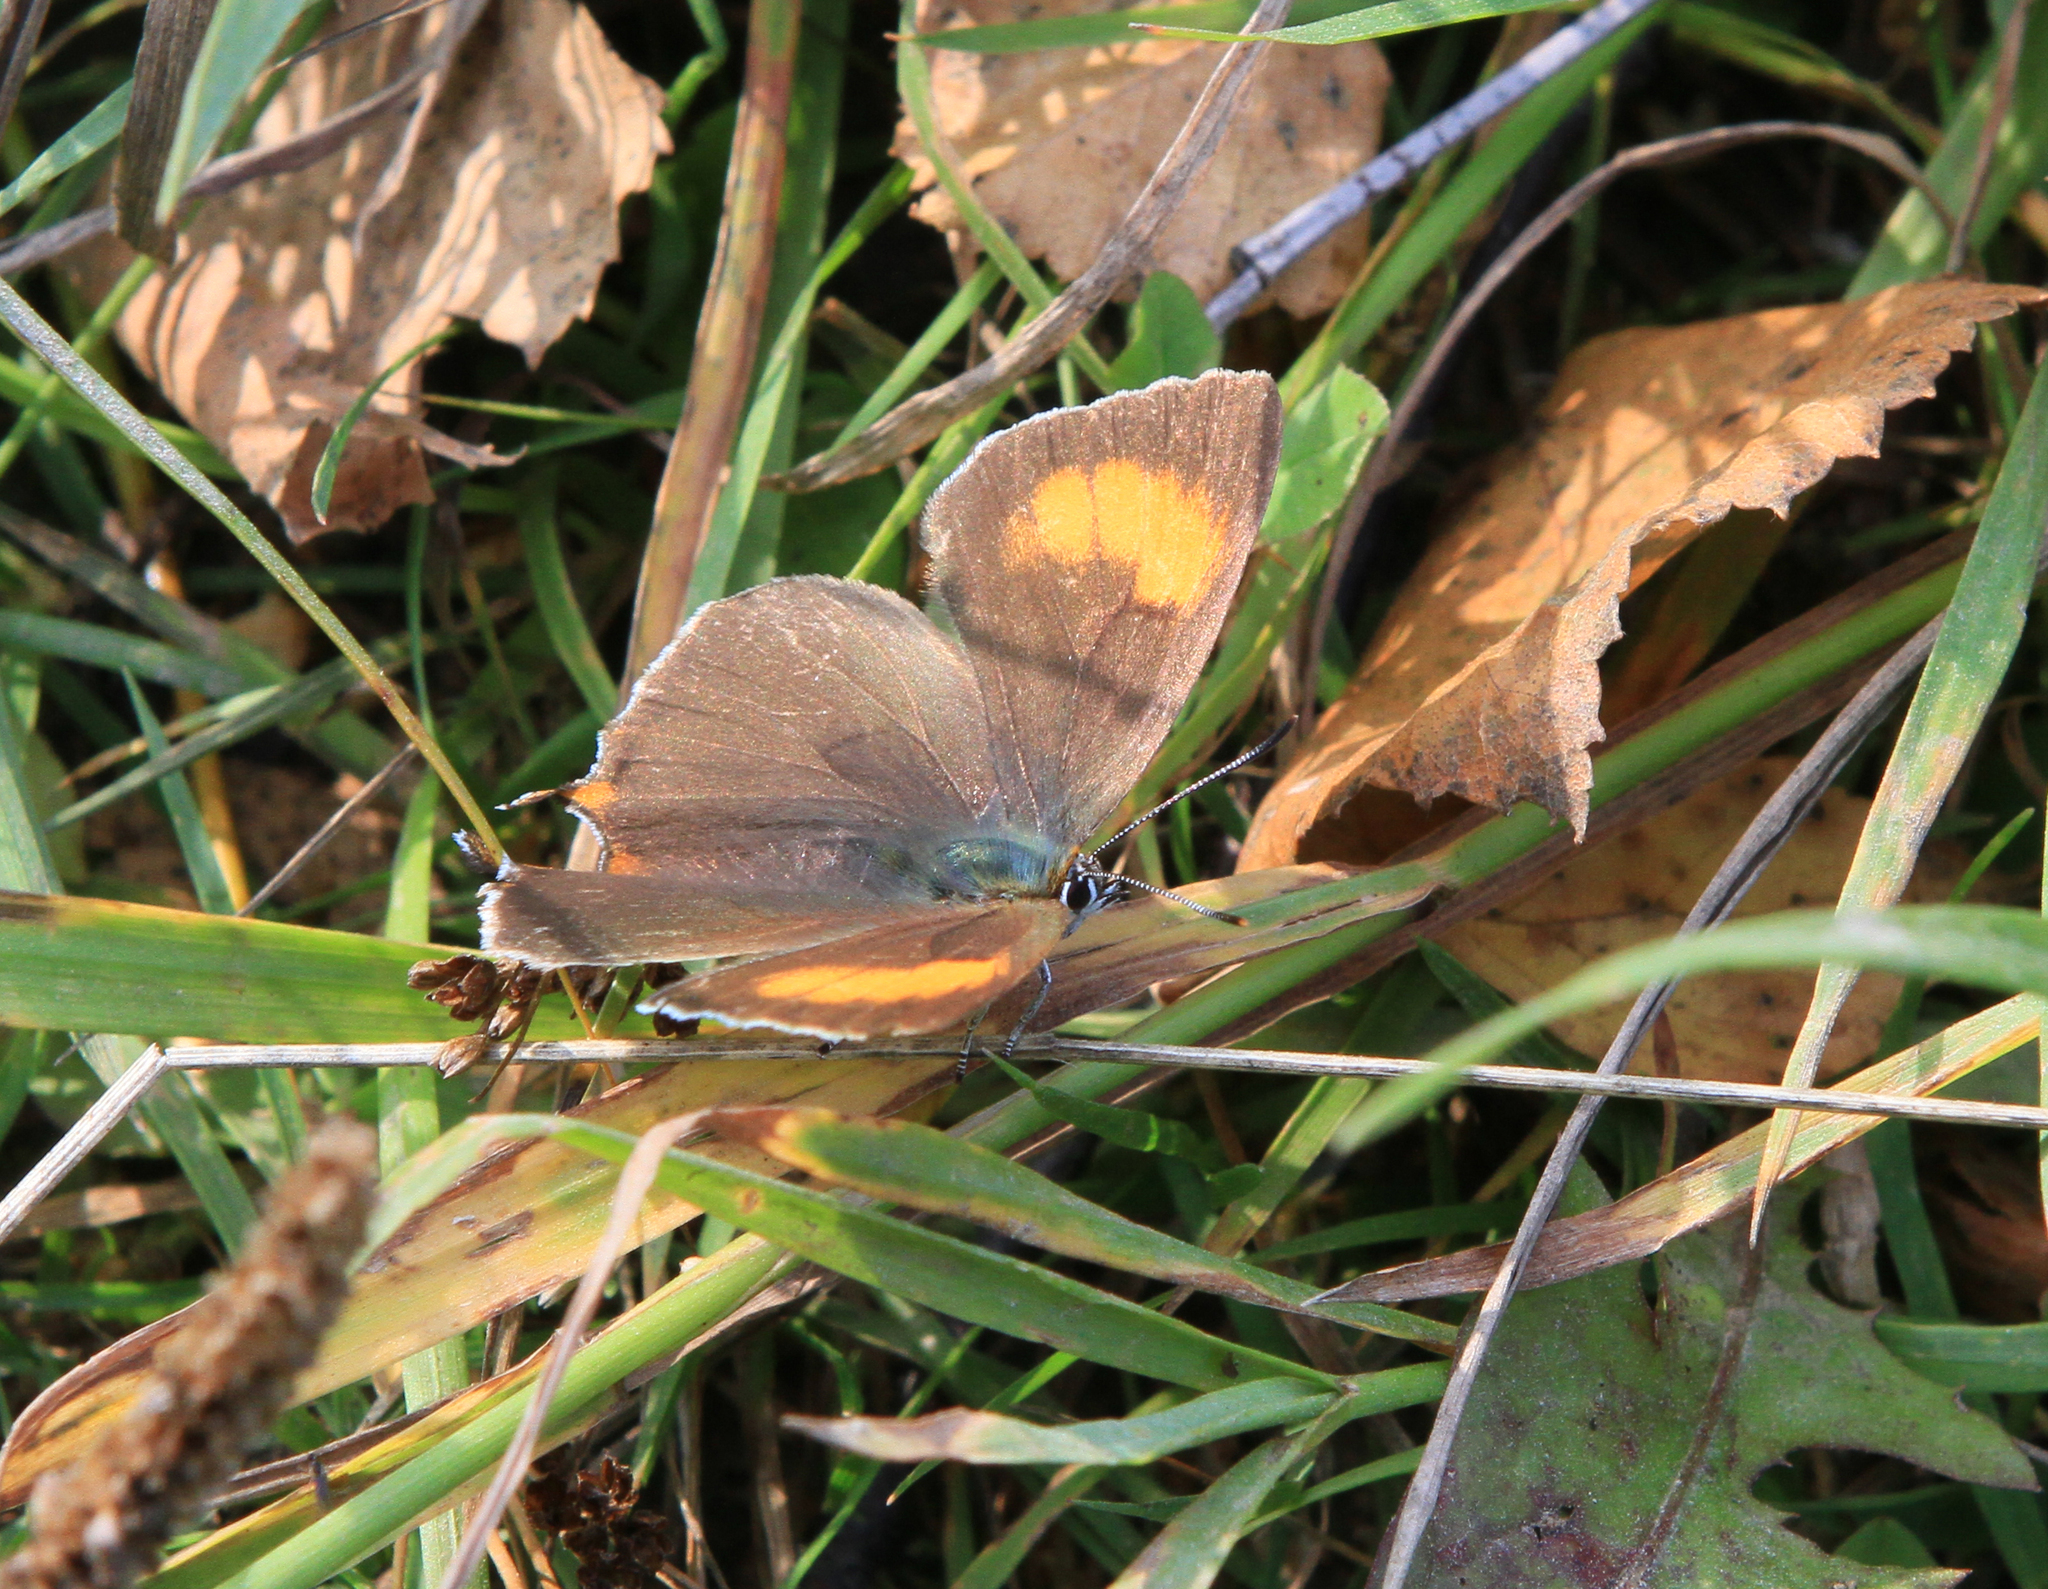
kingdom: Animalia
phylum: Arthropoda
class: Insecta
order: Lepidoptera
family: Lycaenidae
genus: Thecla
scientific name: Thecla betulae
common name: Brown hairstreak
